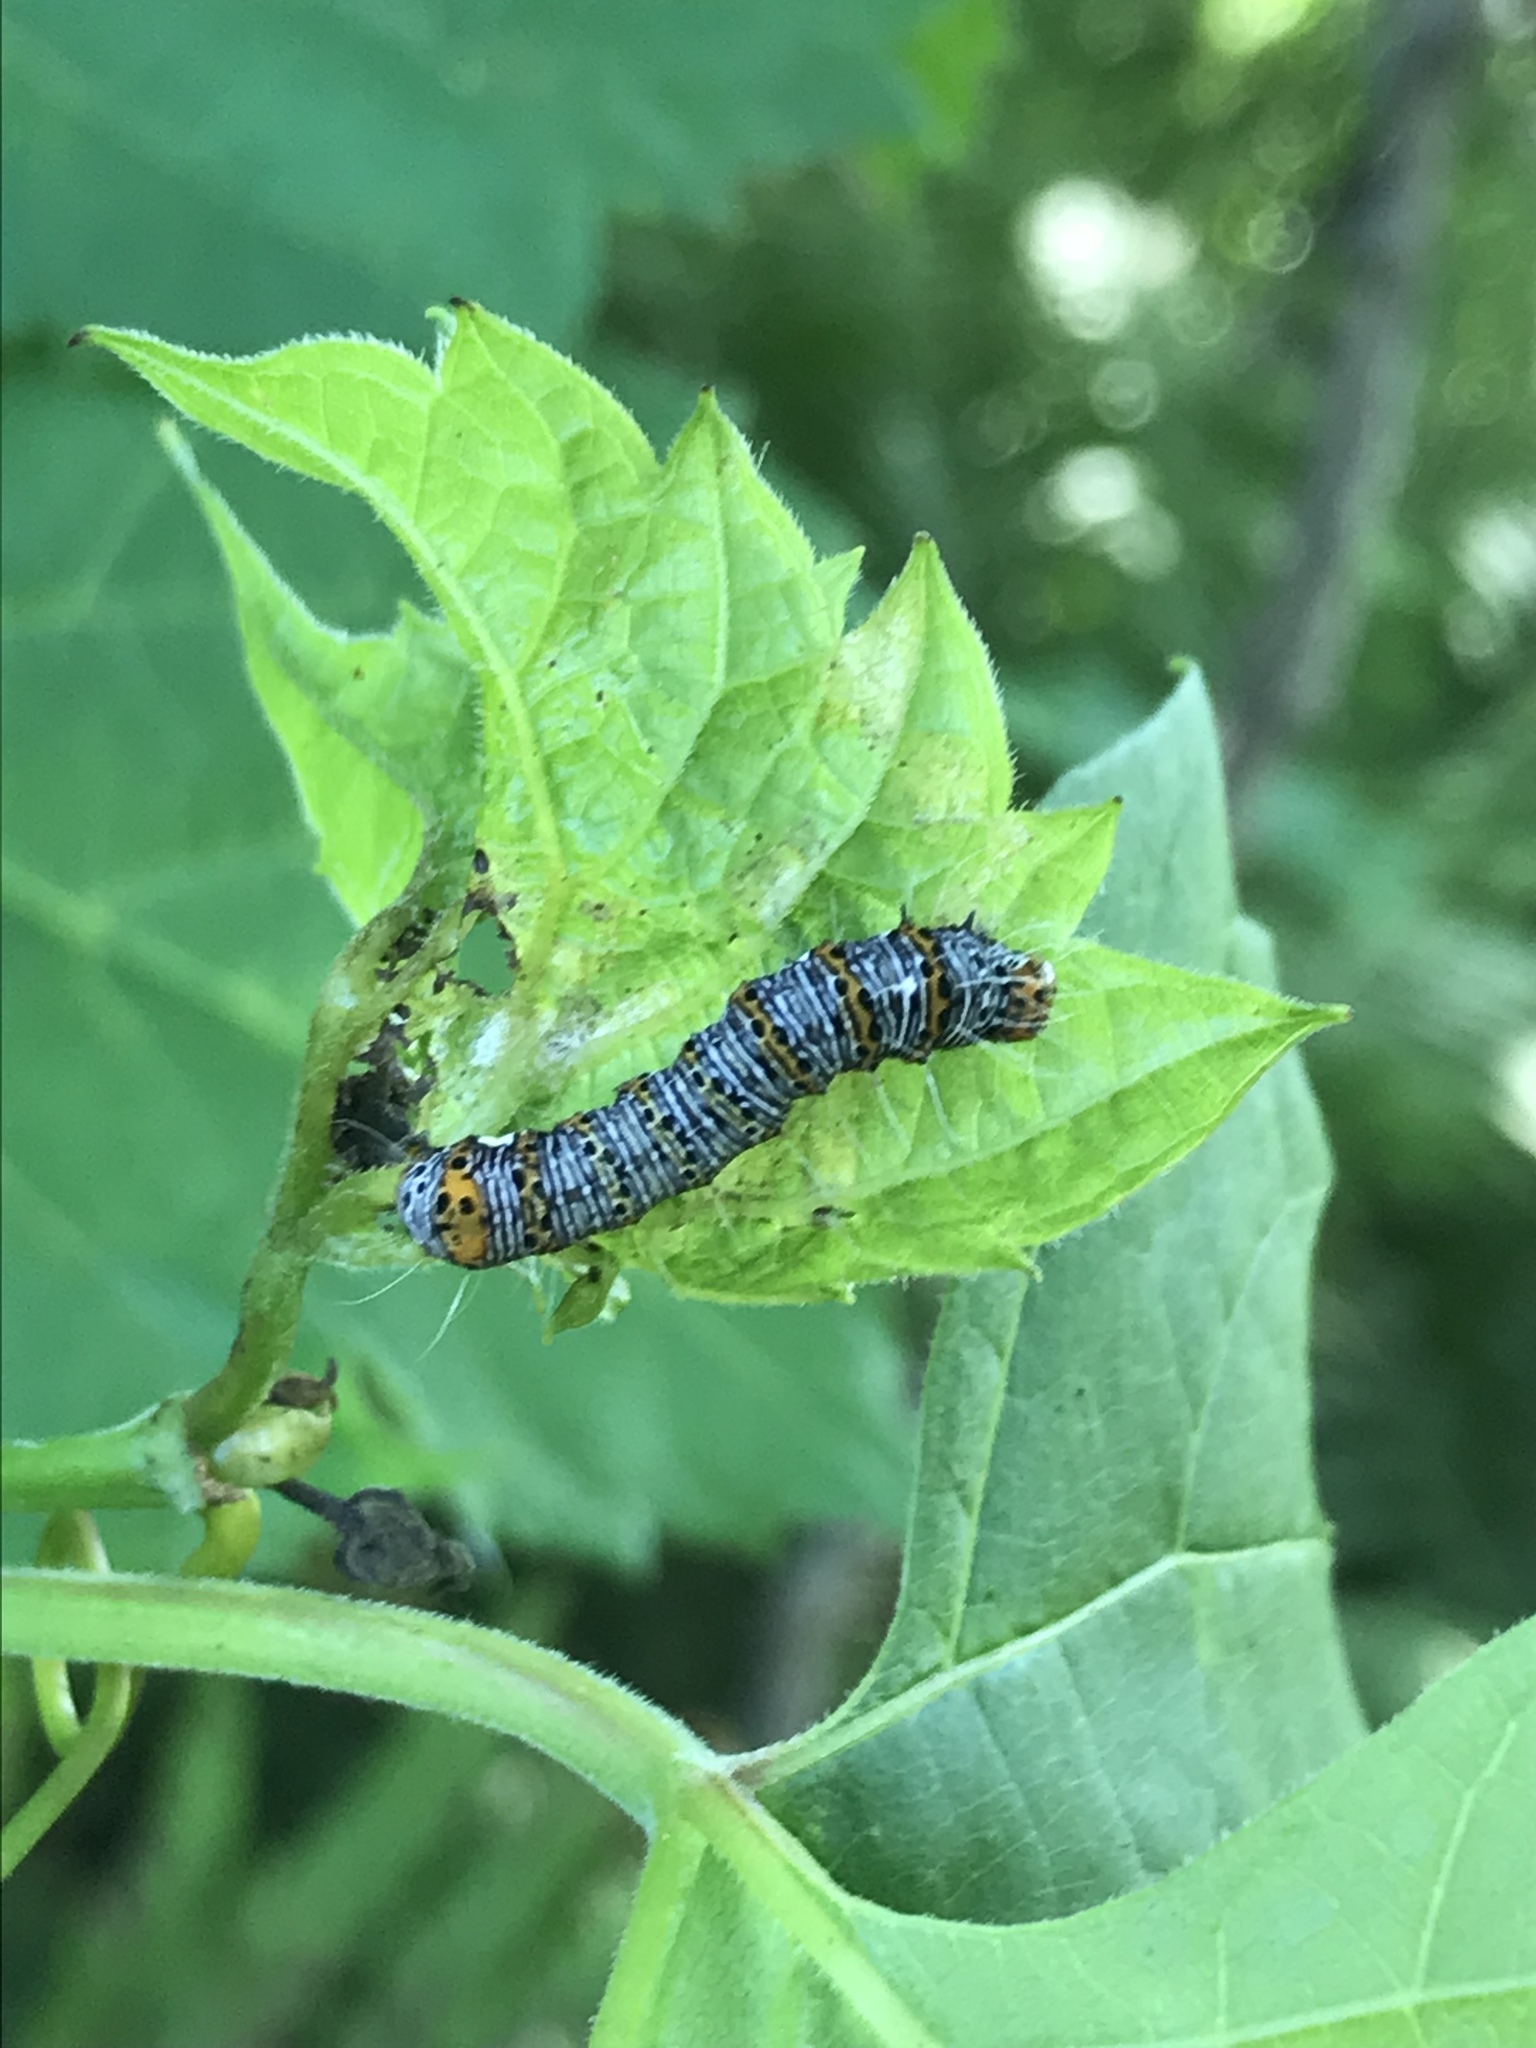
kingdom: Animalia
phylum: Arthropoda
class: Insecta
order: Lepidoptera
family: Noctuidae
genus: Alypia
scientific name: Alypia octomaculata
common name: Eight-spotted forester
